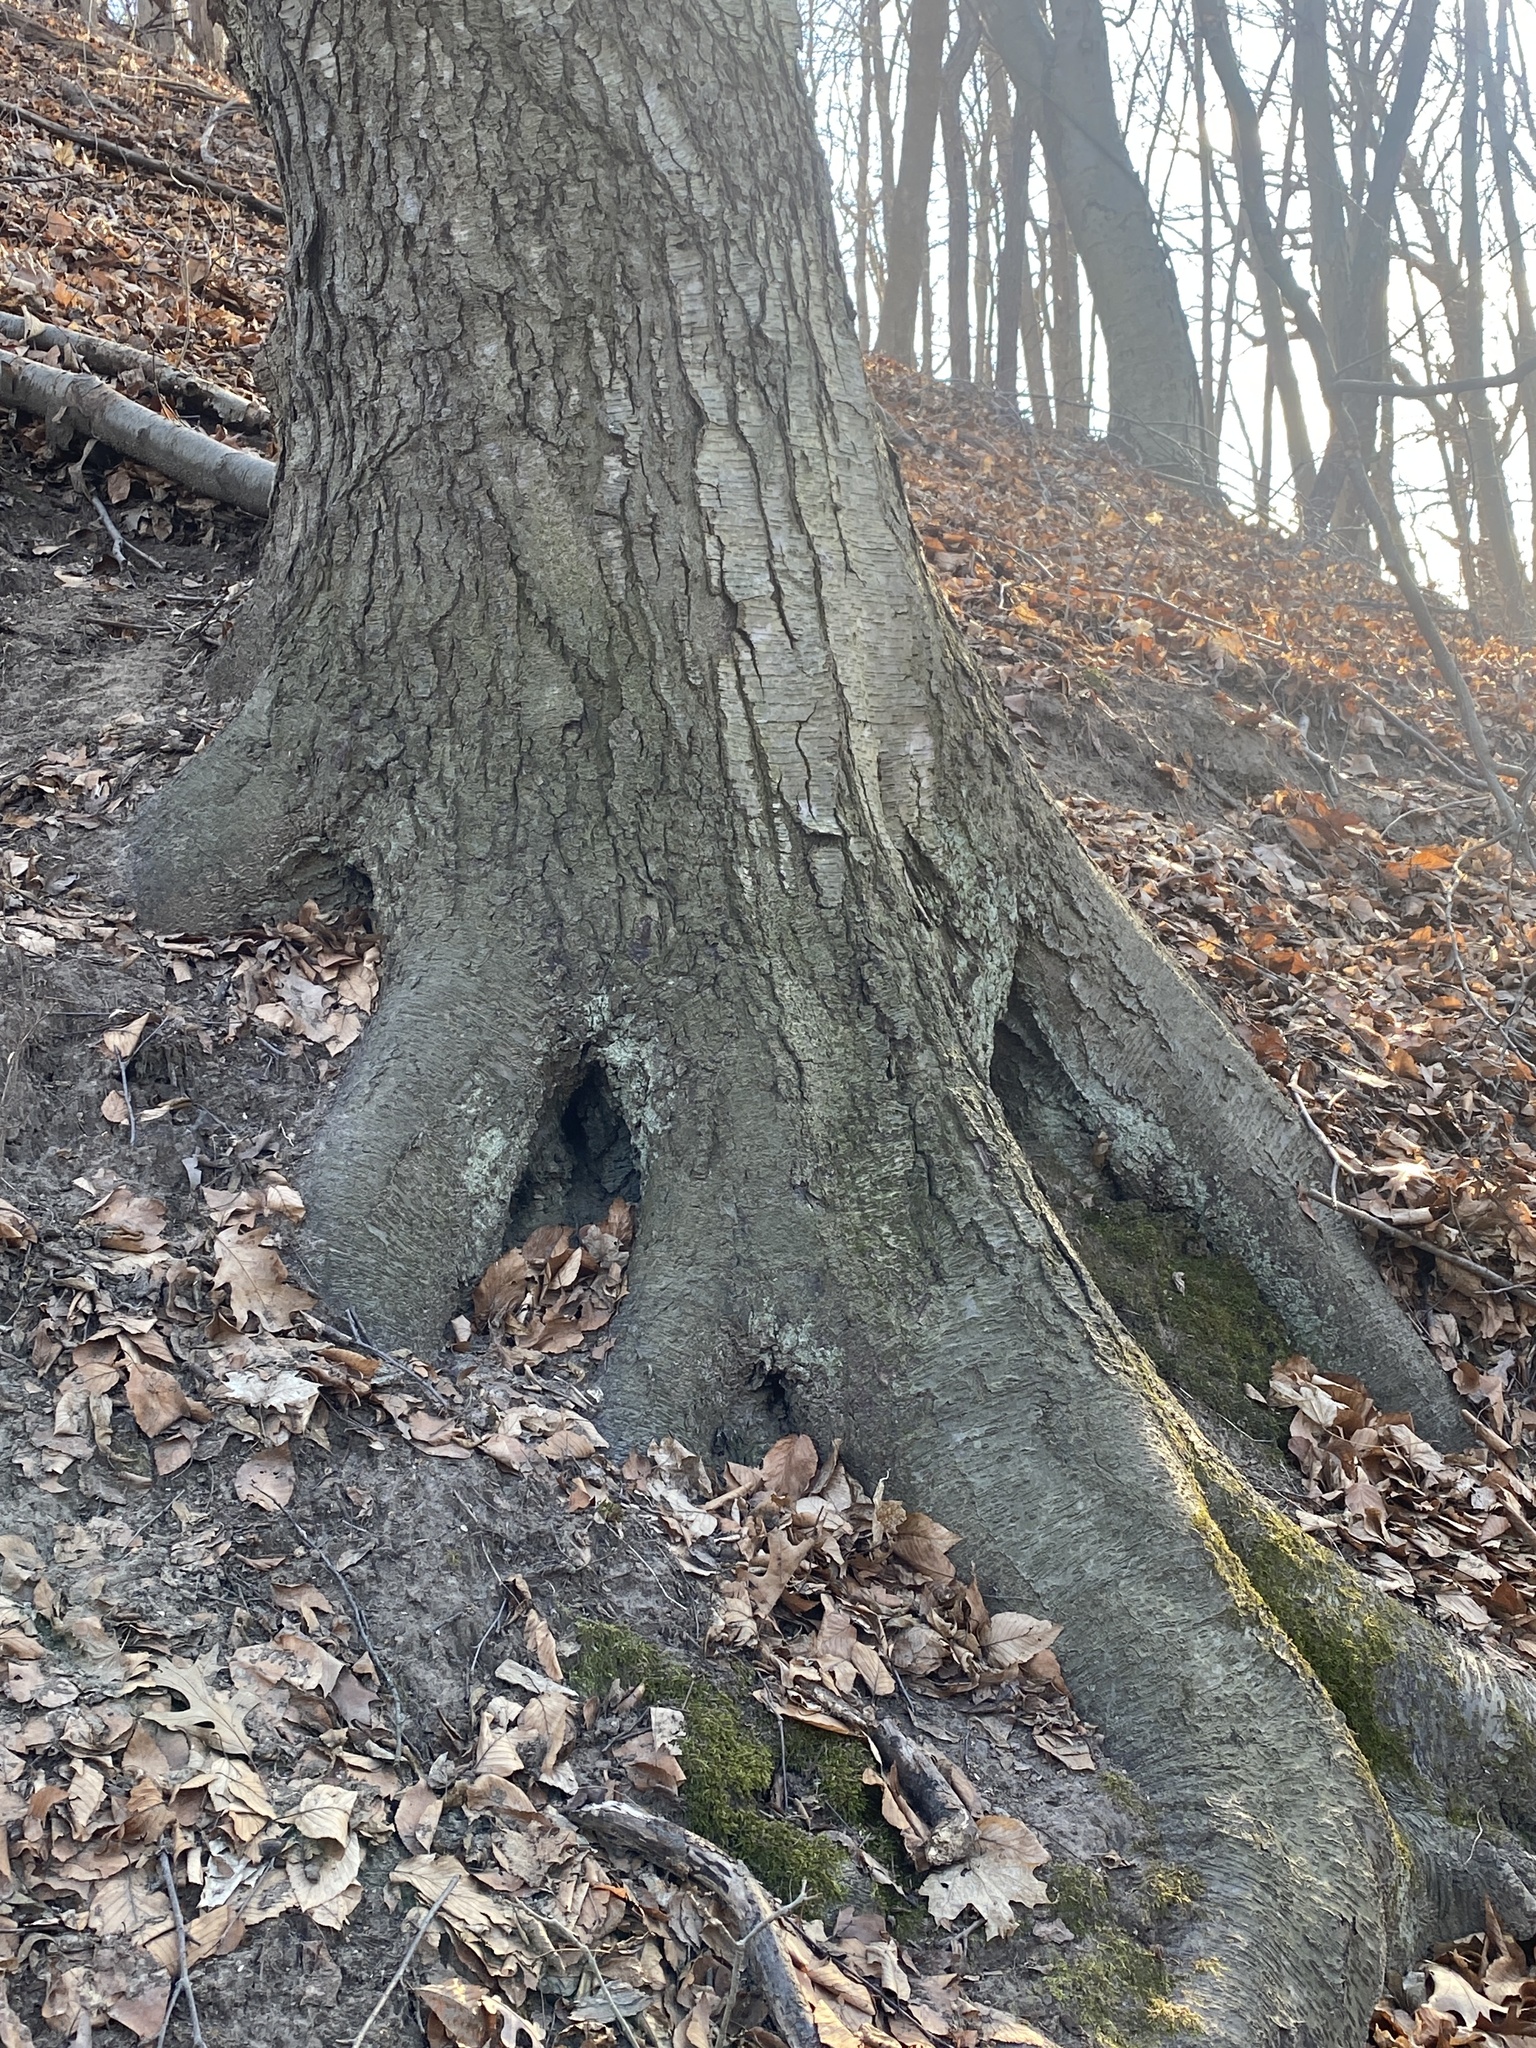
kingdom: Plantae
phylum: Tracheophyta
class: Magnoliopsida
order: Fagales
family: Betulaceae
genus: Betula
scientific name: Betula lenta
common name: Black birch
